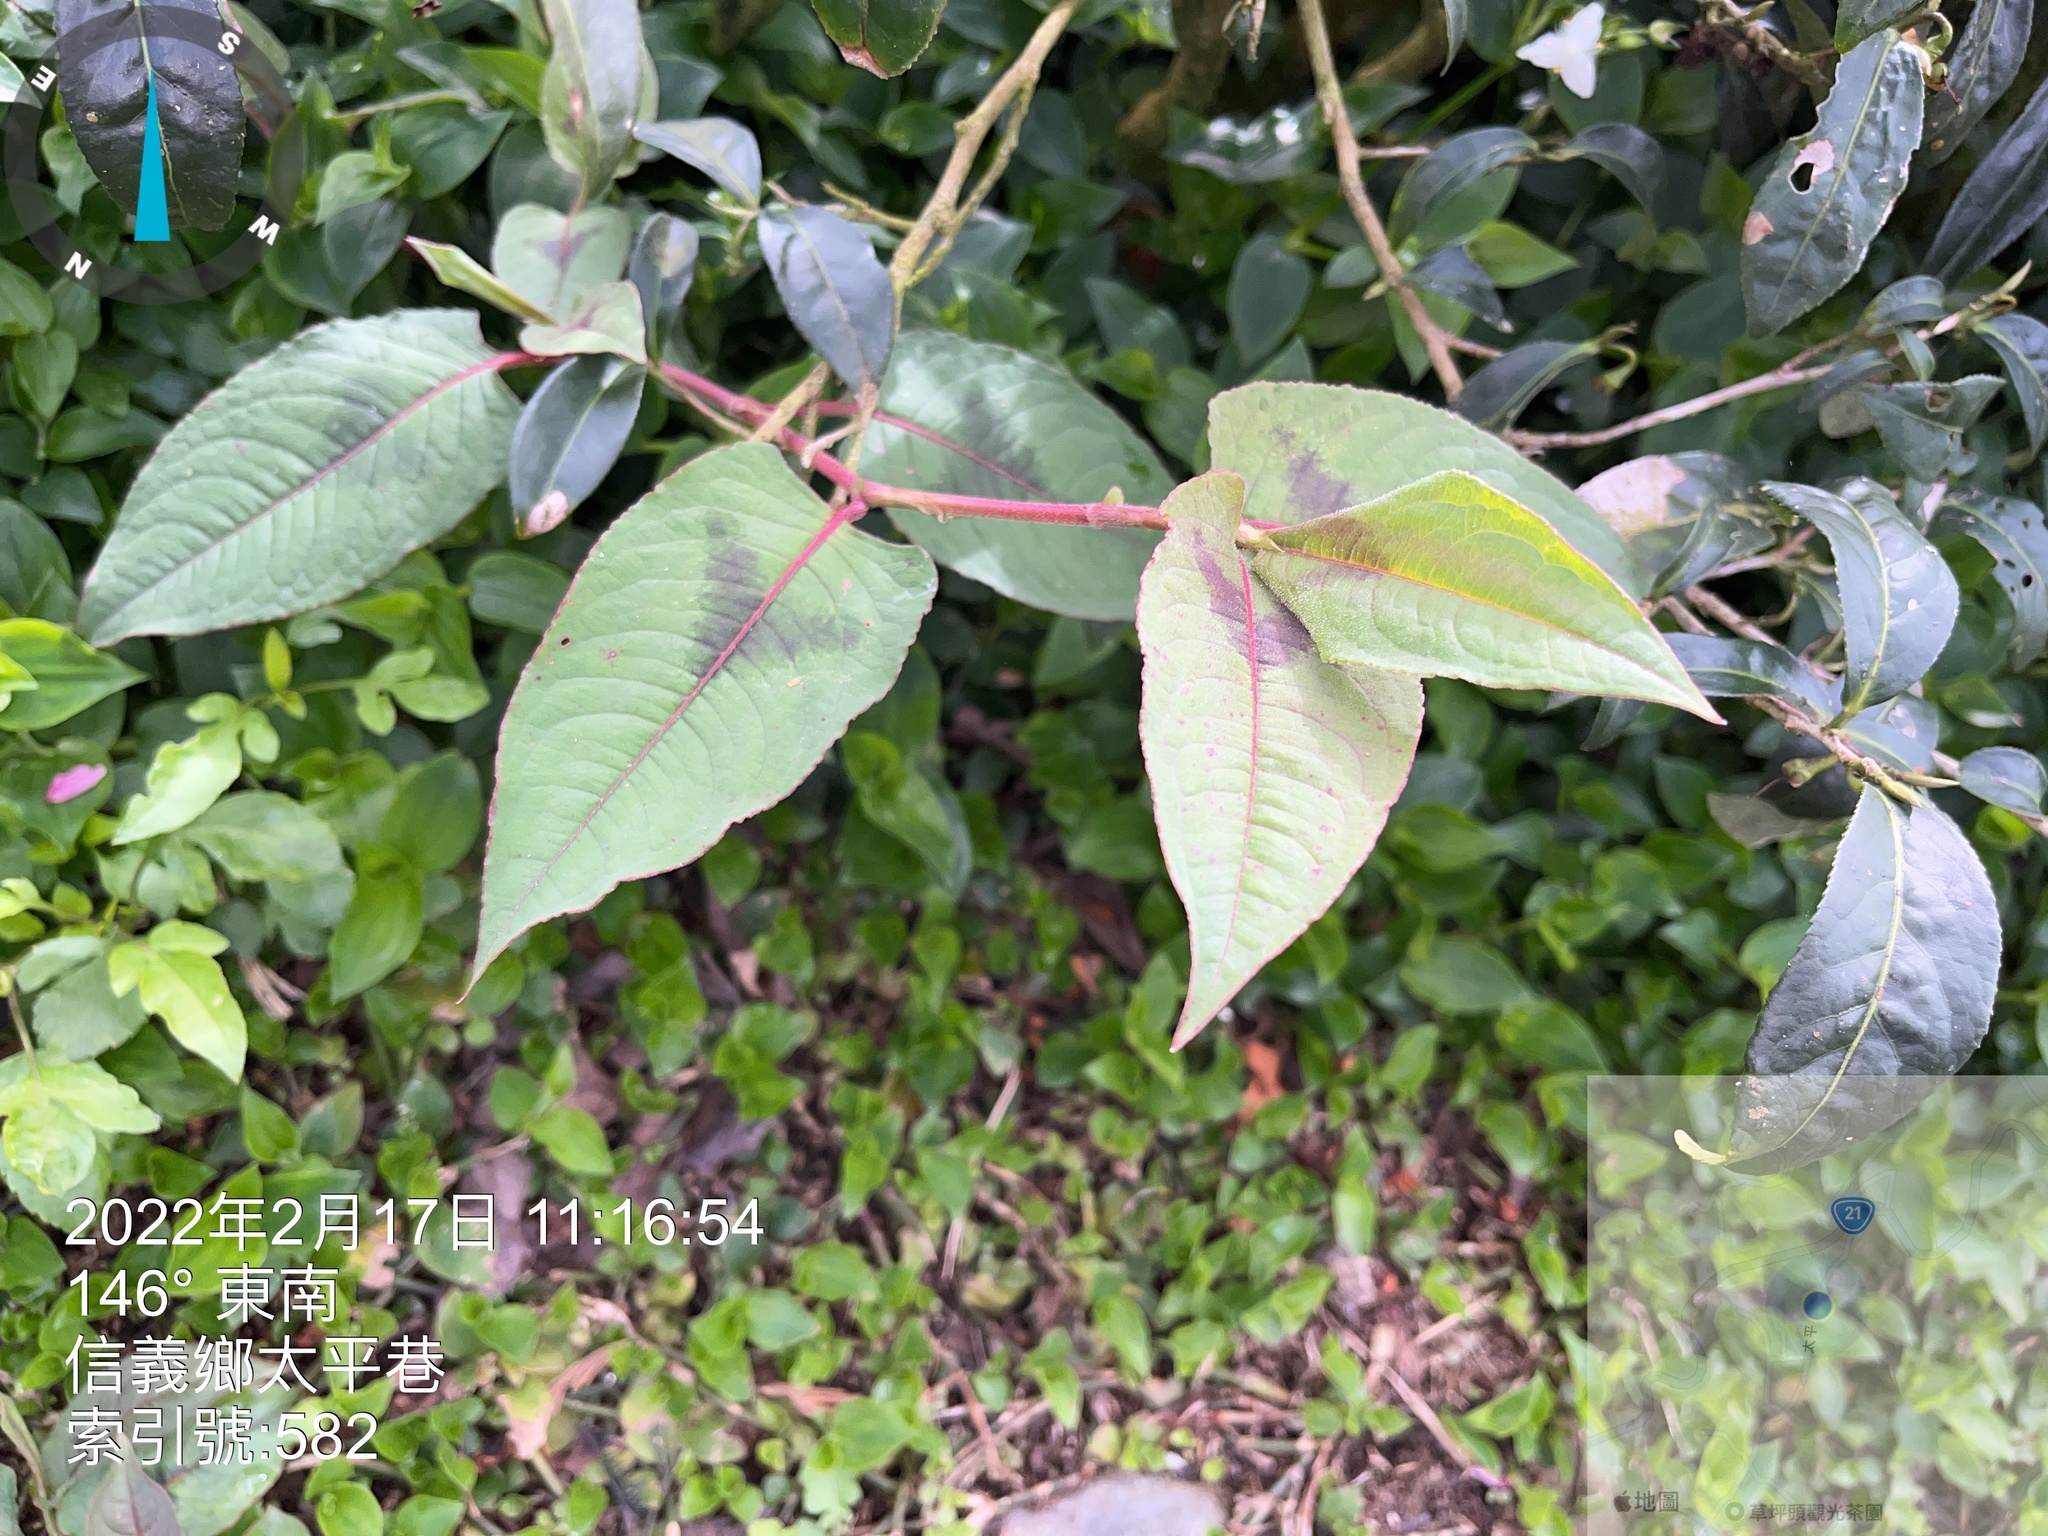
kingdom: Plantae
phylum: Tracheophyta
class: Magnoliopsida
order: Caryophyllales
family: Polygonaceae
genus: Persicaria
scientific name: Persicaria chinensis
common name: Chinese knotweed
